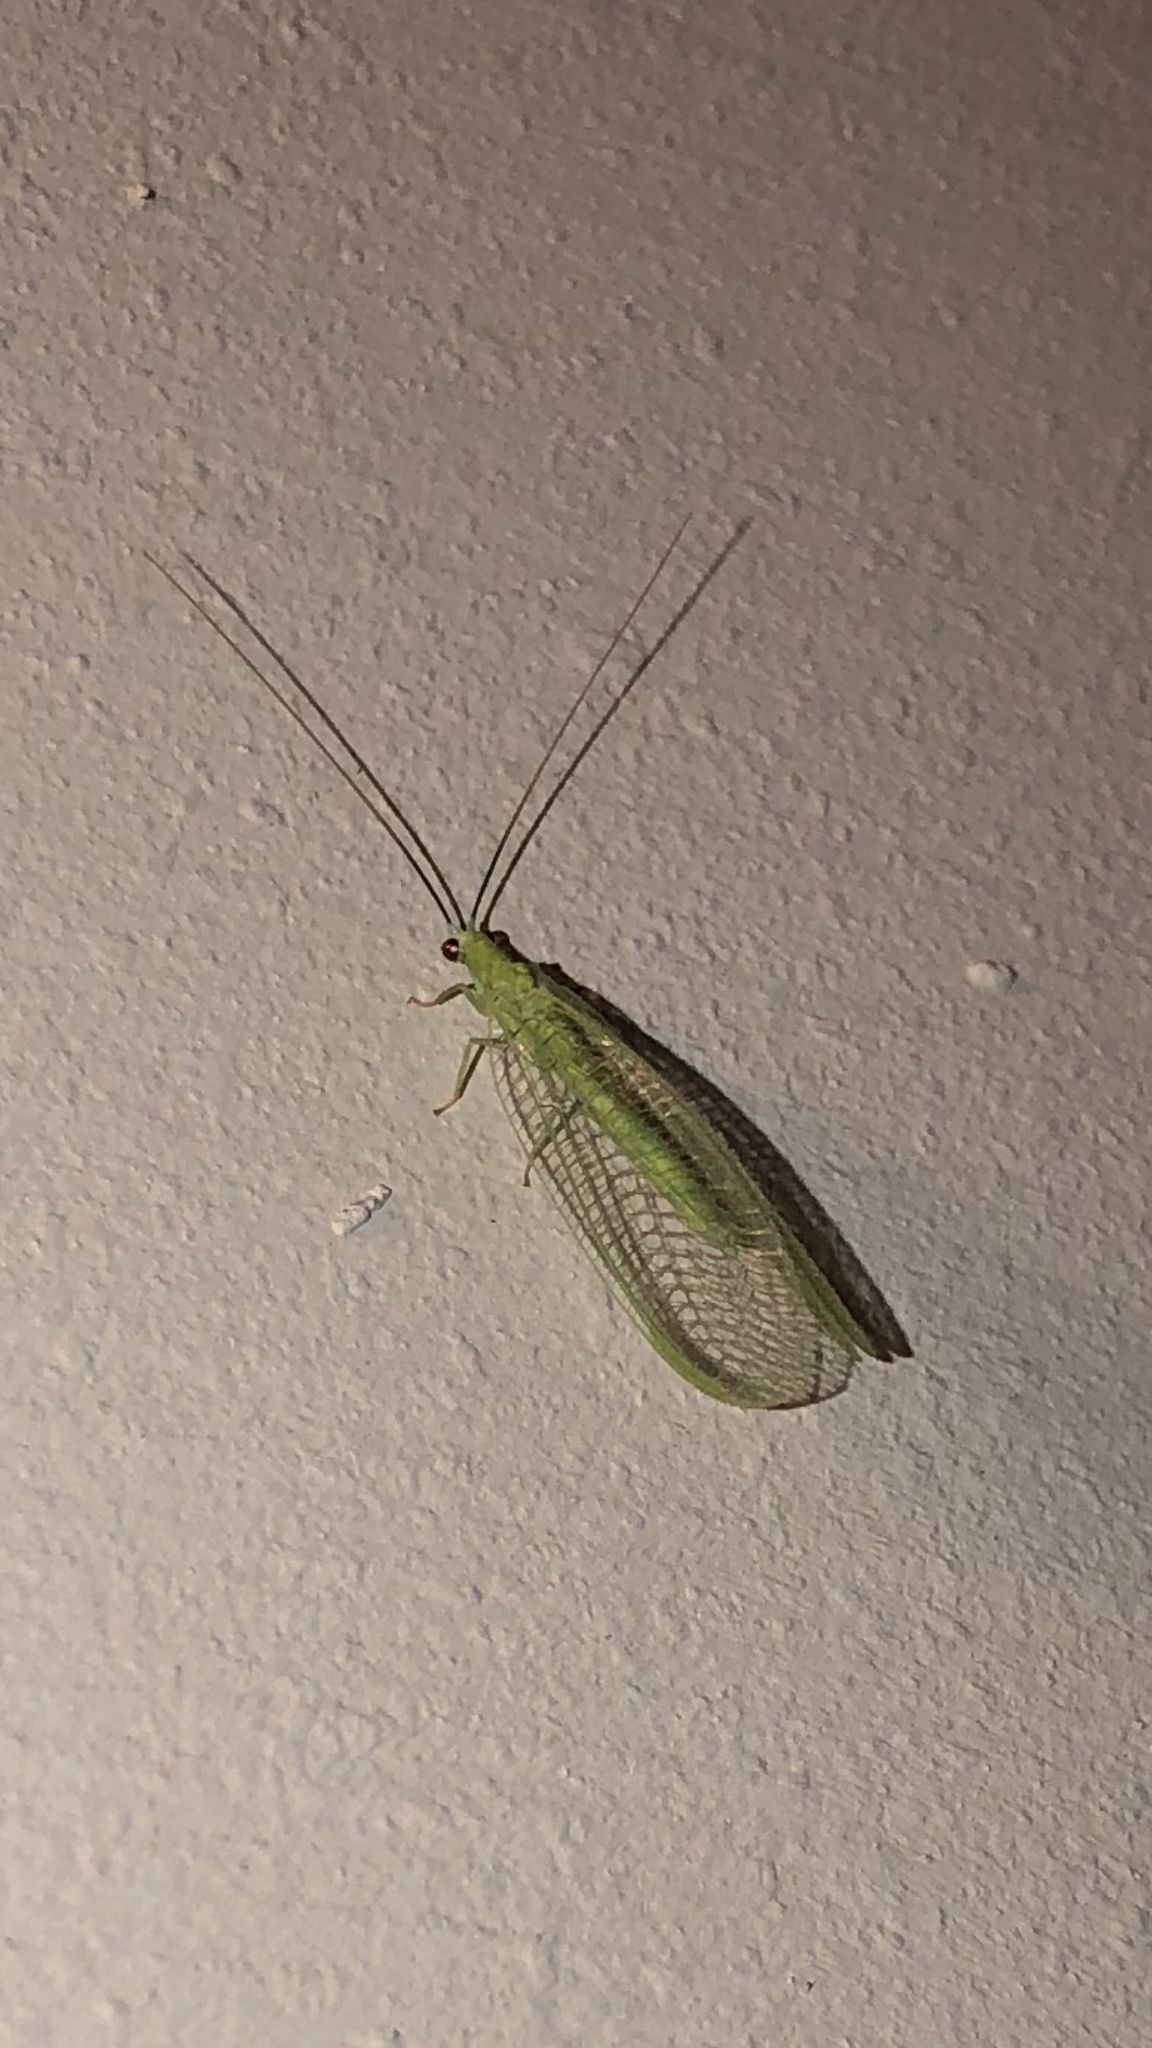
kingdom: Animalia
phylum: Arthropoda
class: Insecta
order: Neuroptera
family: Chrysopidae
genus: Chrysopa
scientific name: Chrysopa nigricornis
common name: Black-horned green lacewing
